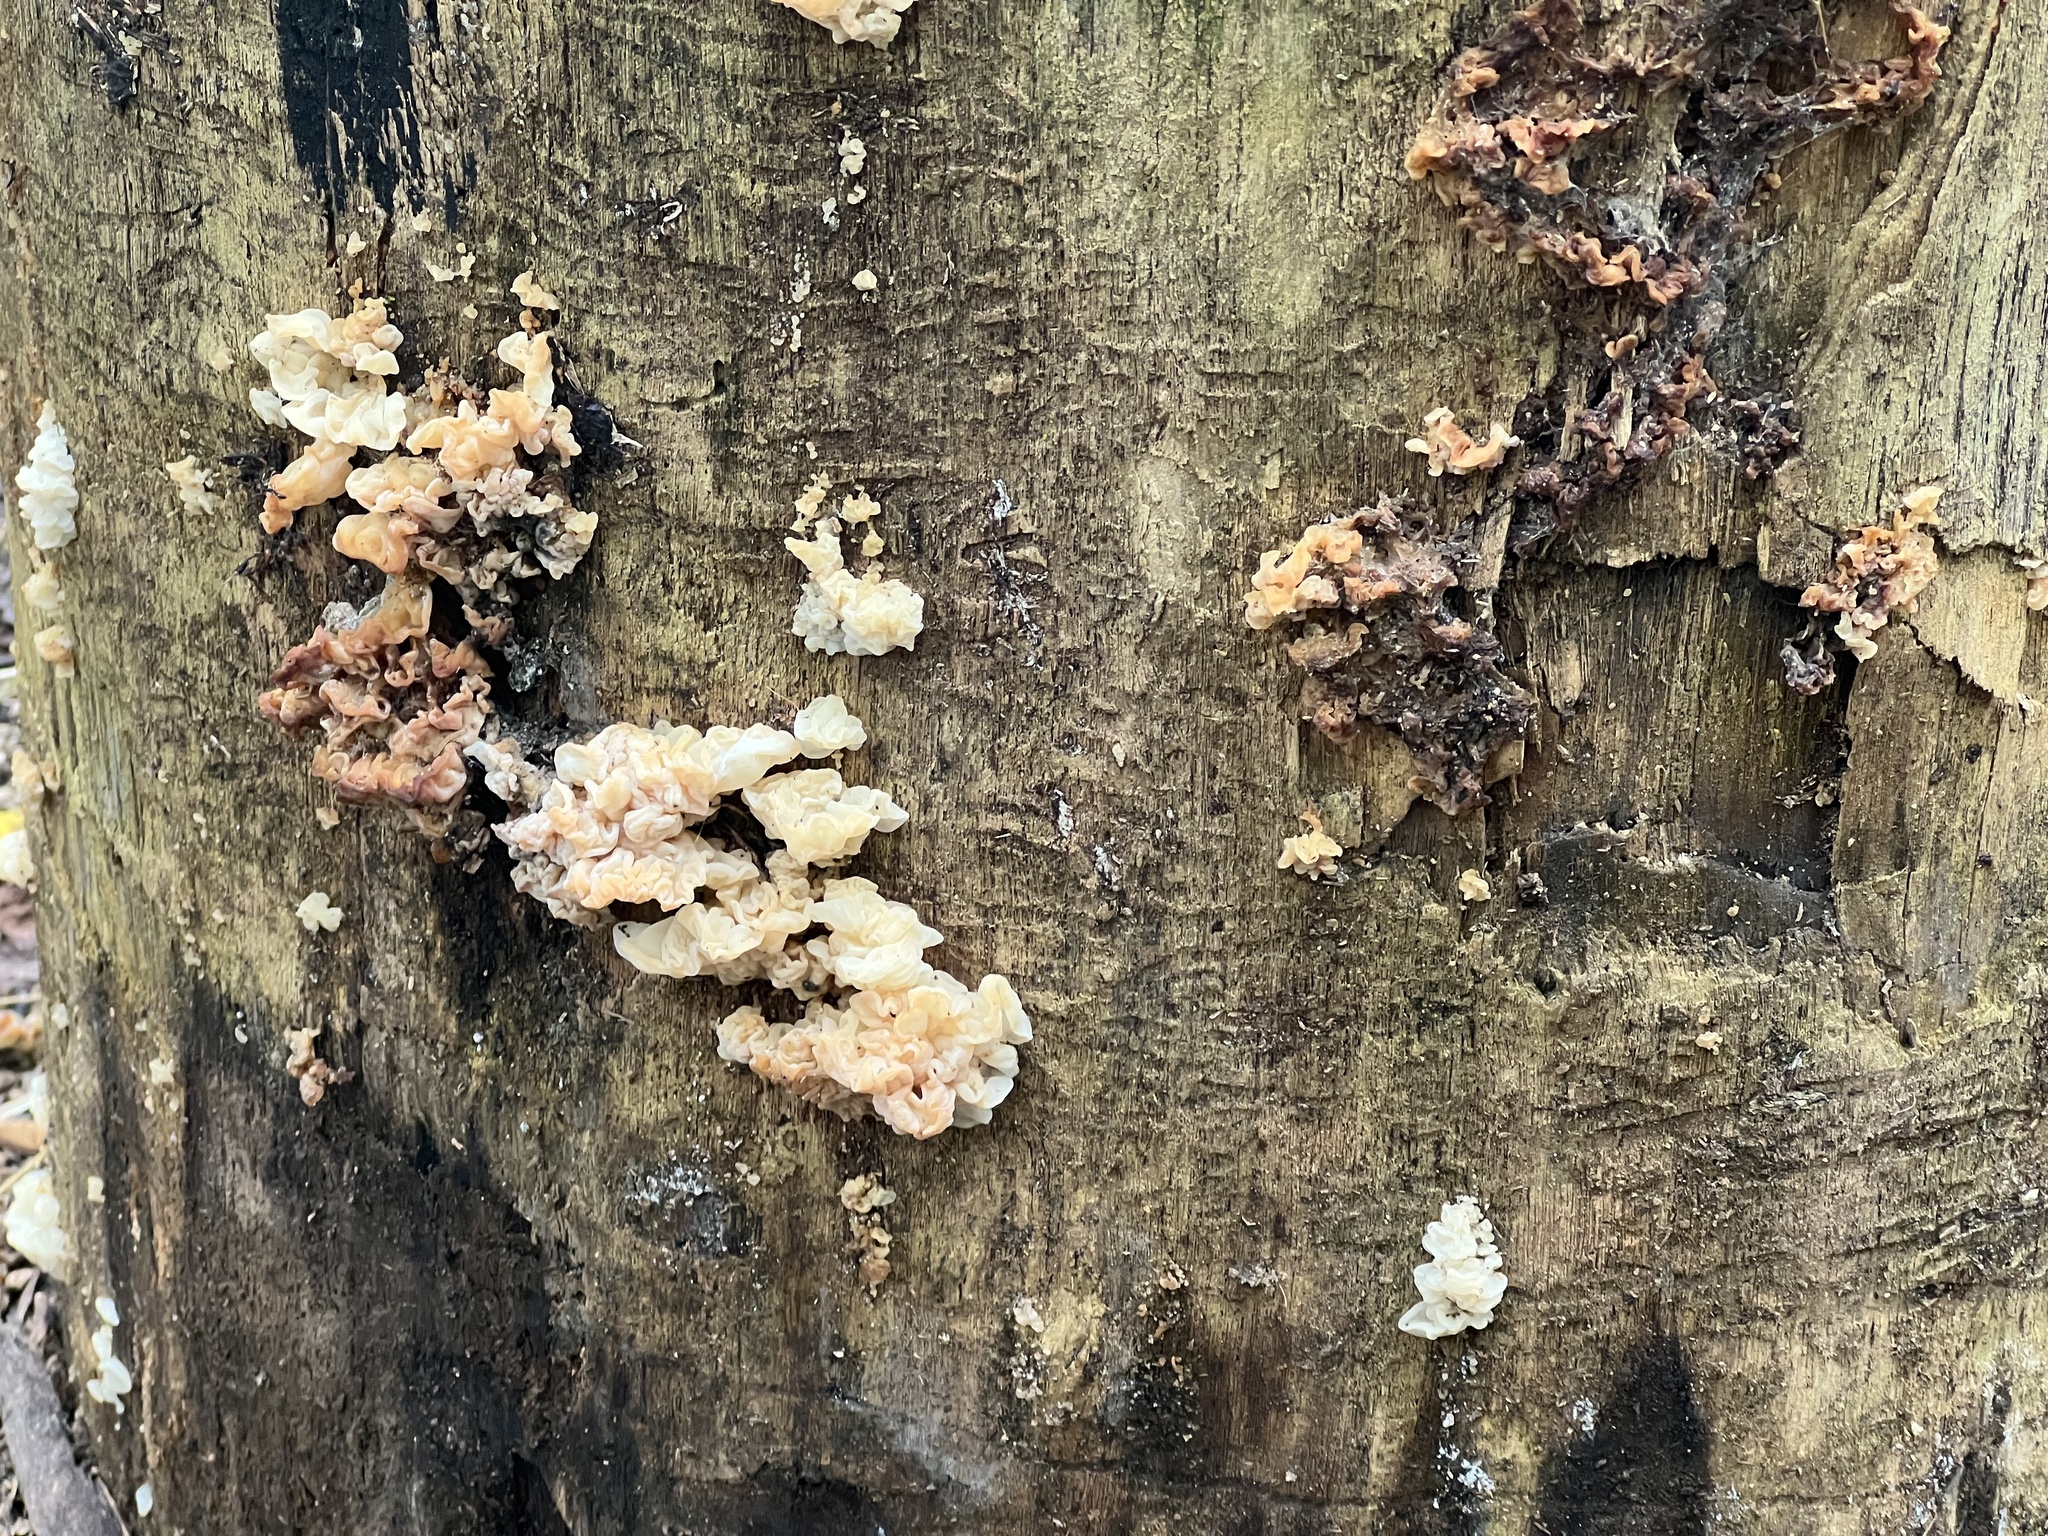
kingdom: Fungi
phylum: Basidiomycota
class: Agaricomycetes
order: Auriculariales
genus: Ductifera
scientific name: Ductifera pululahuana
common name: White jelly fungus
